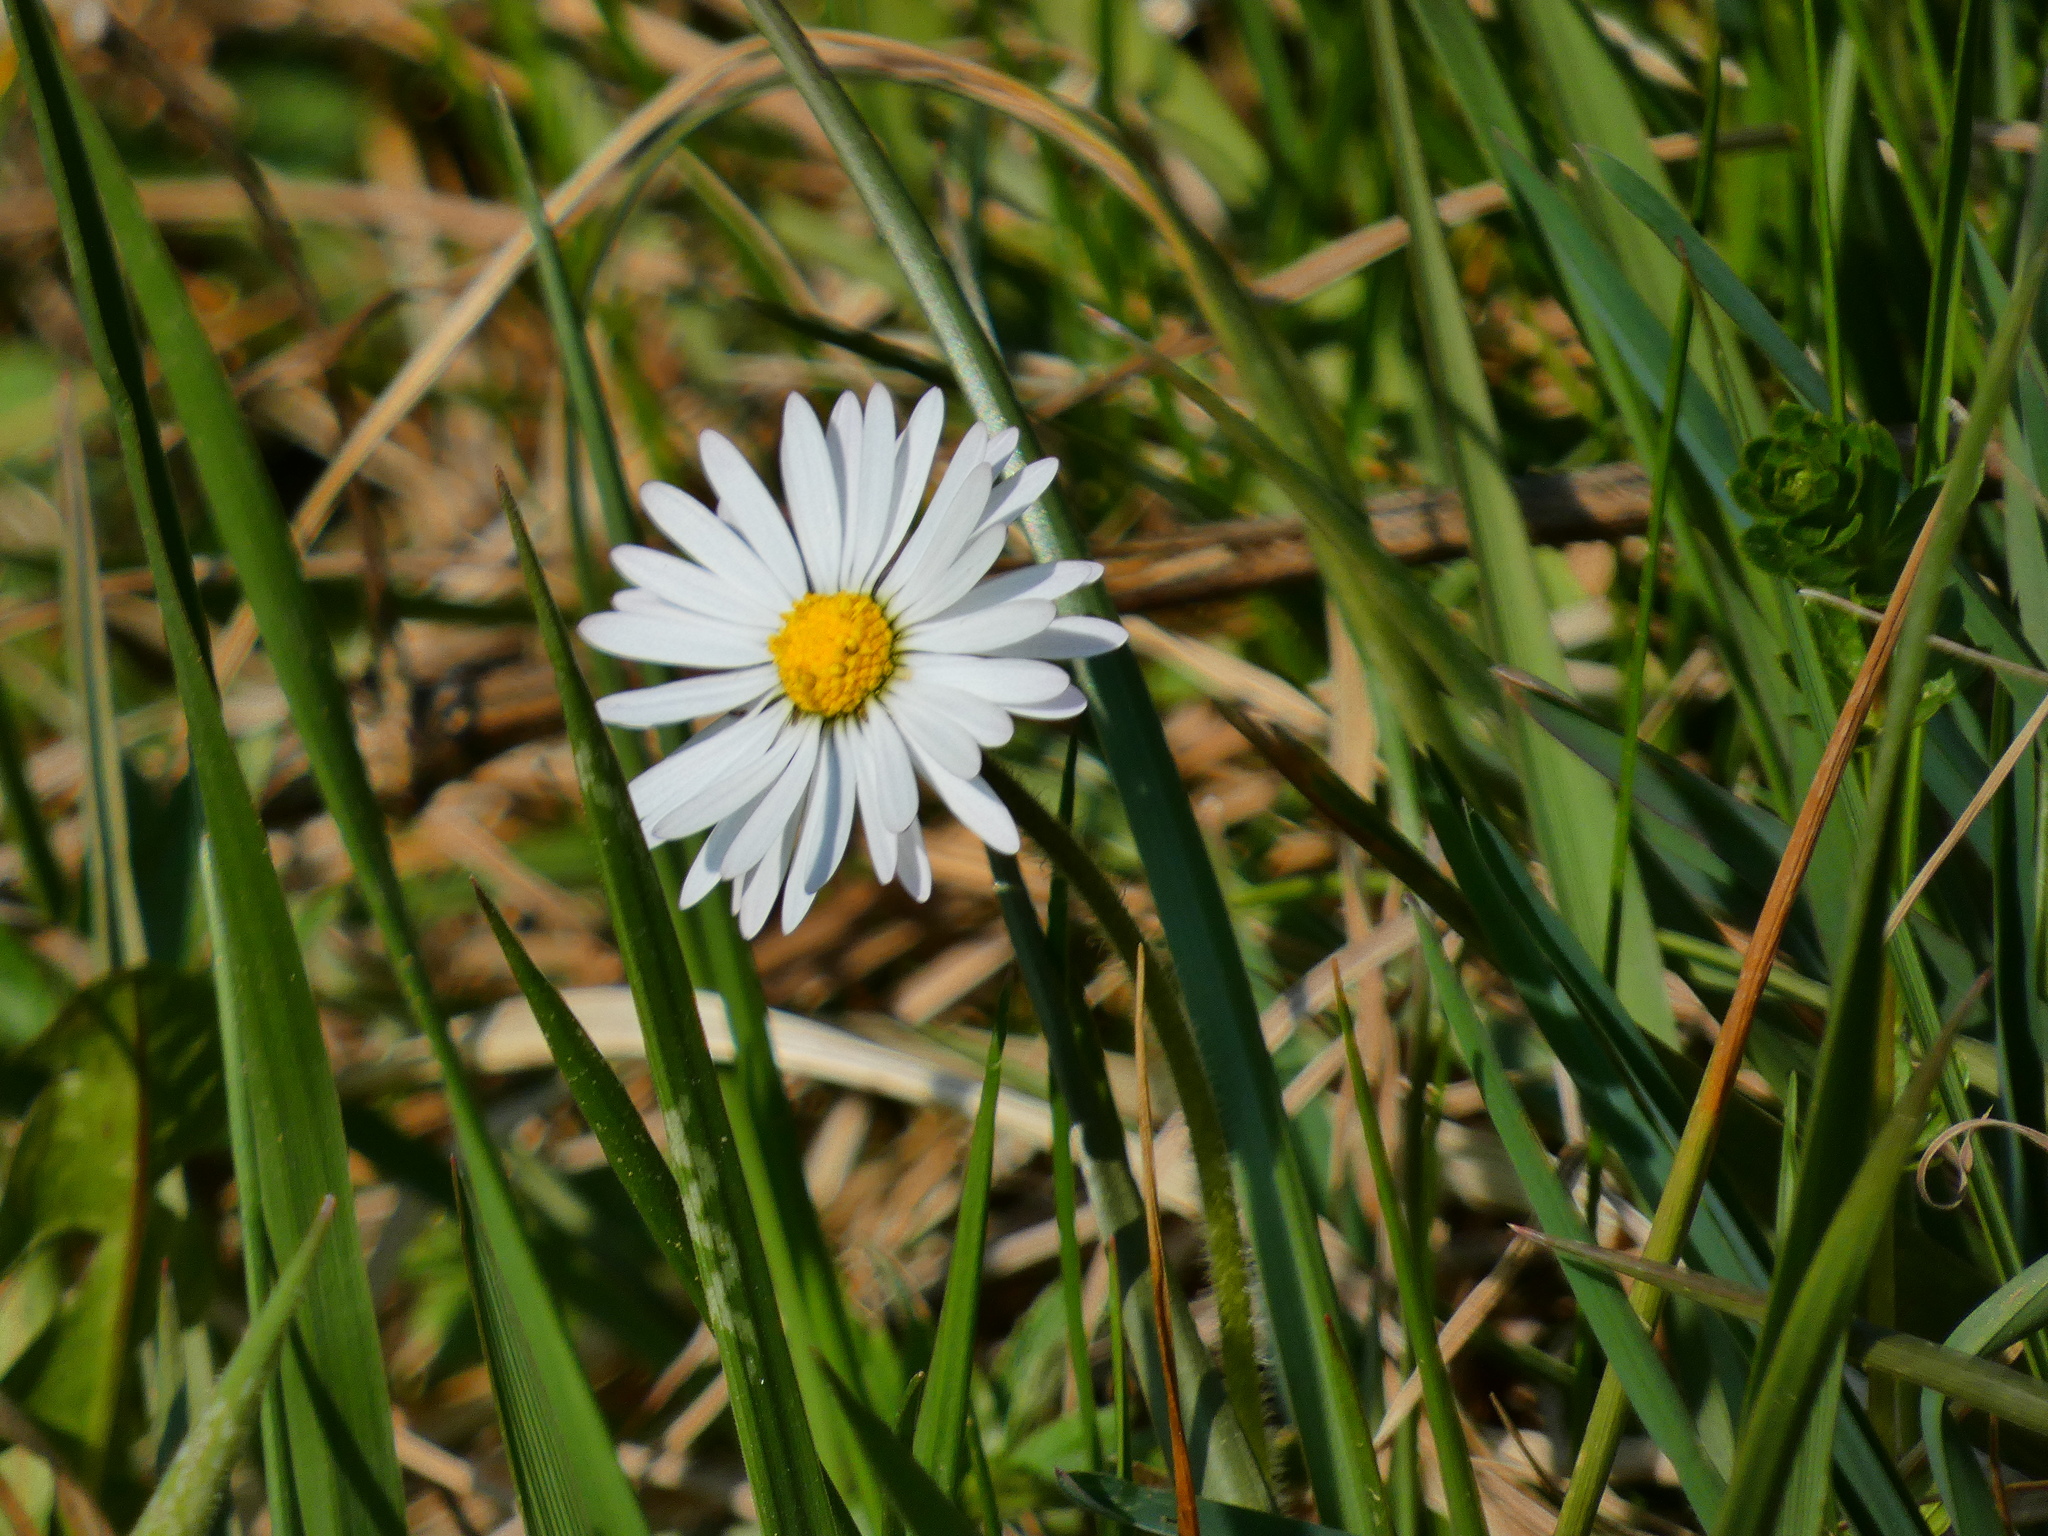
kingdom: Plantae
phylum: Tracheophyta
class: Magnoliopsida
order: Asterales
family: Asteraceae
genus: Bellis
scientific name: Bellis perennis
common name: Lawndaisy
